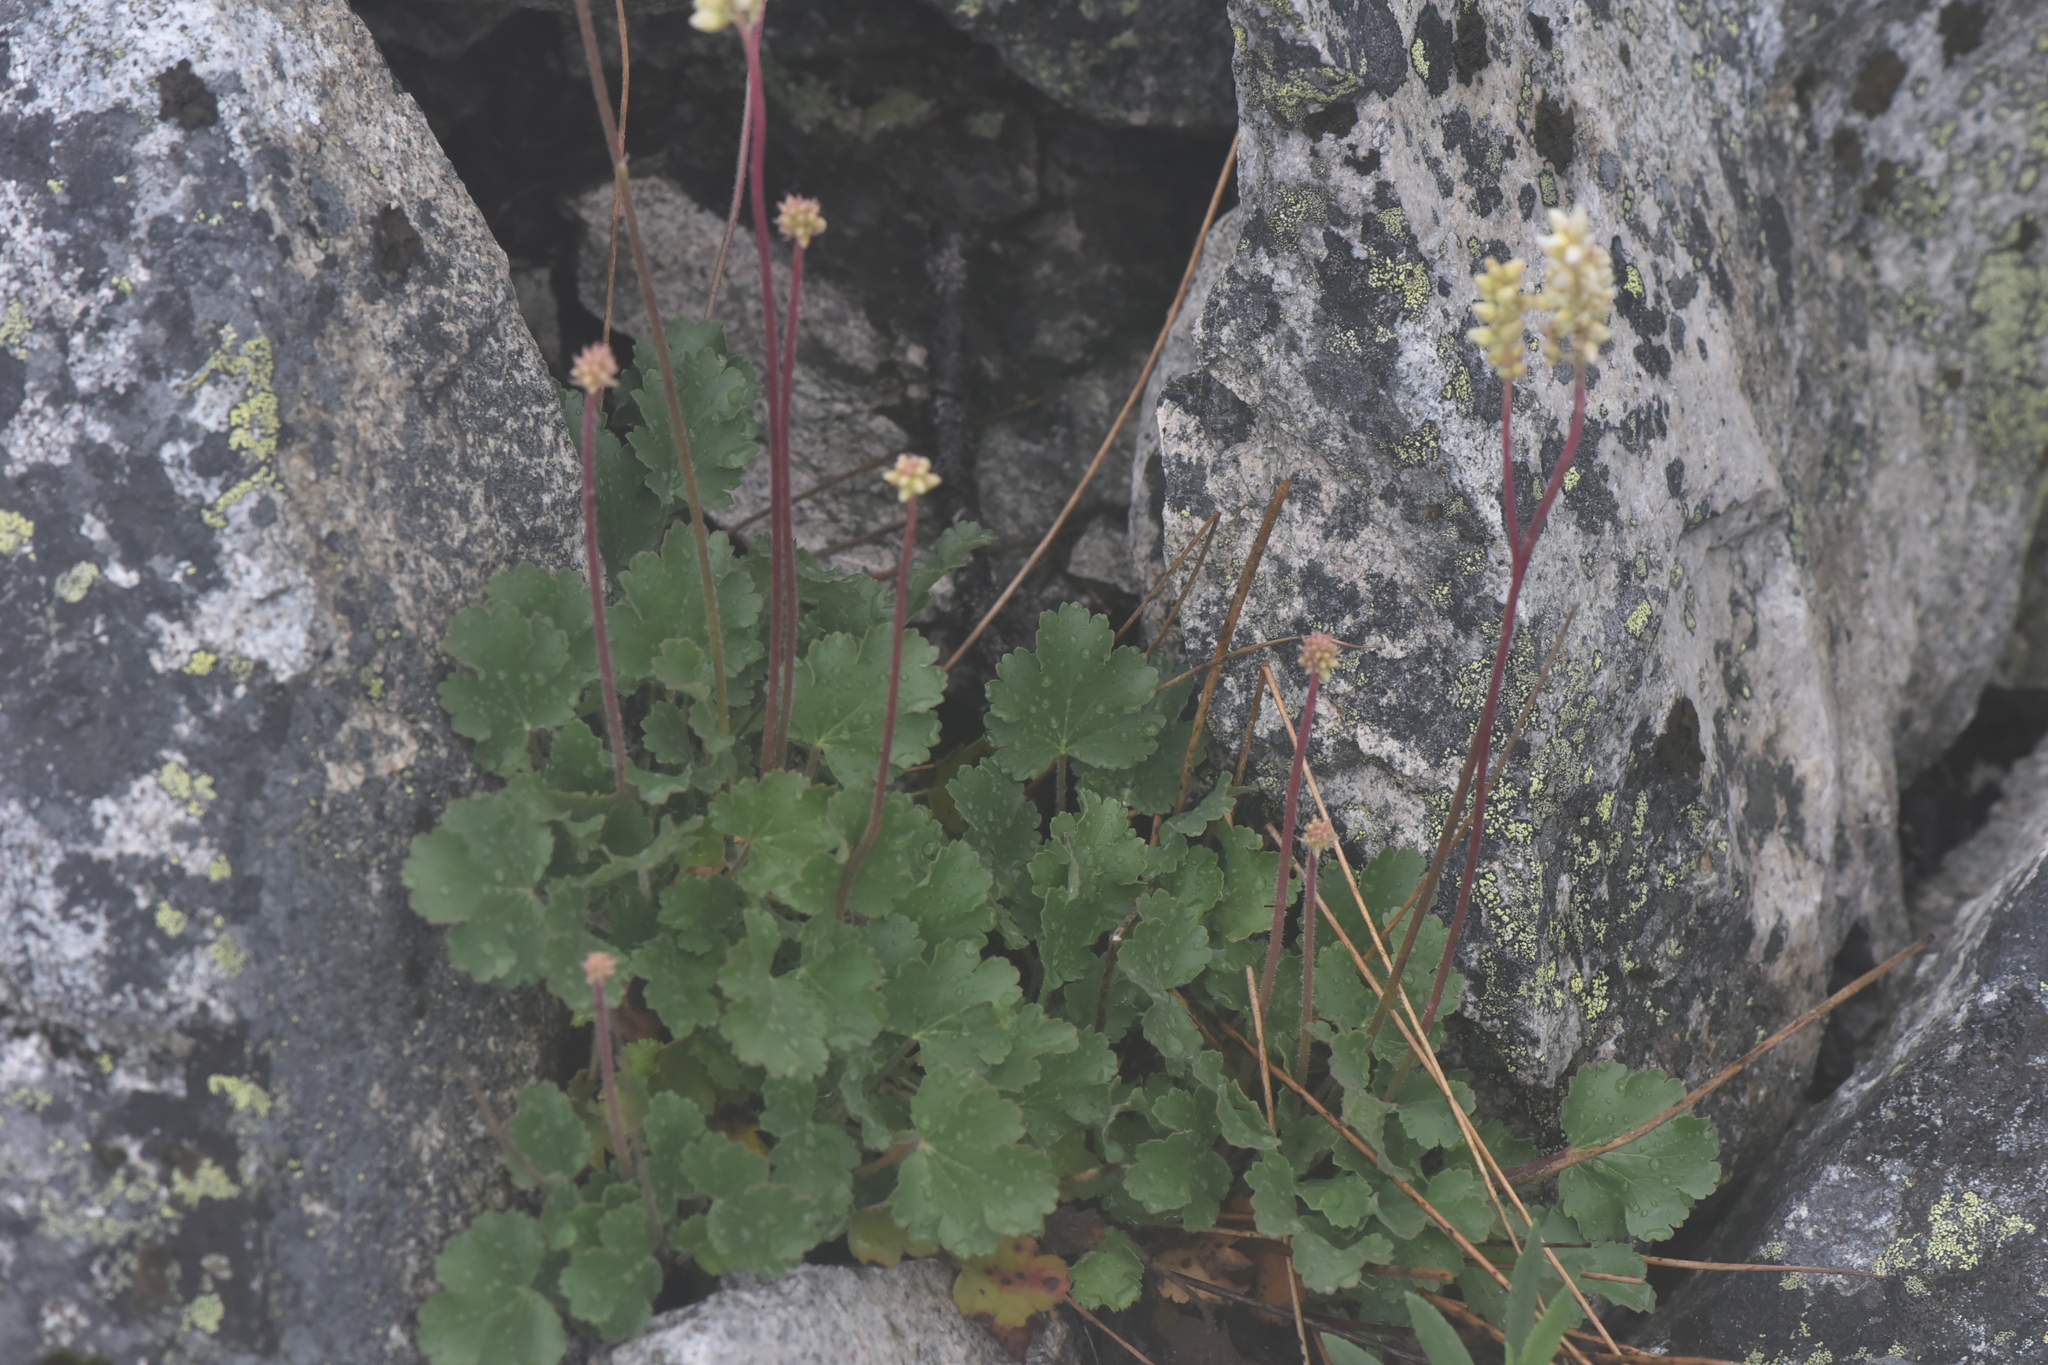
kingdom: Plantae
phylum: Tracheophyta
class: Magnoliopsida
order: Saxifragales
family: Saxifragaceae
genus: Heuchera
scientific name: Heuchera cylindrica
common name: Mat alumroot
